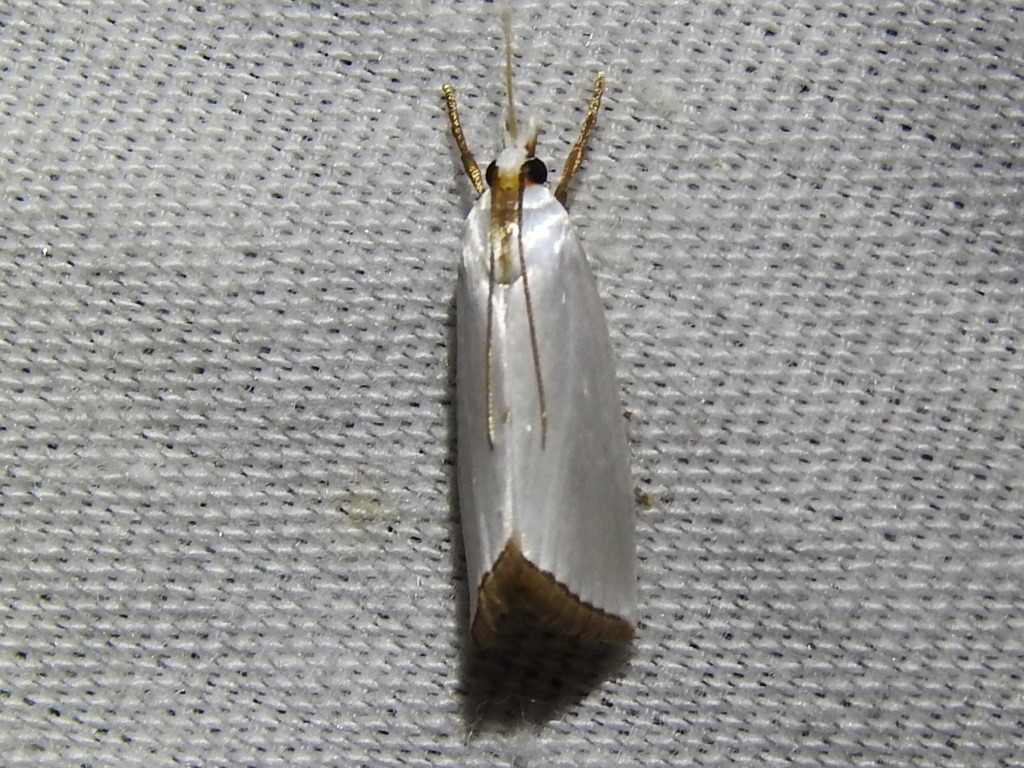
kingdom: Animalia
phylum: Arthropoda
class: Insecta
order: Lepidoptera
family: Crambidae
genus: Argyria
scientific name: Argyria nivalis
